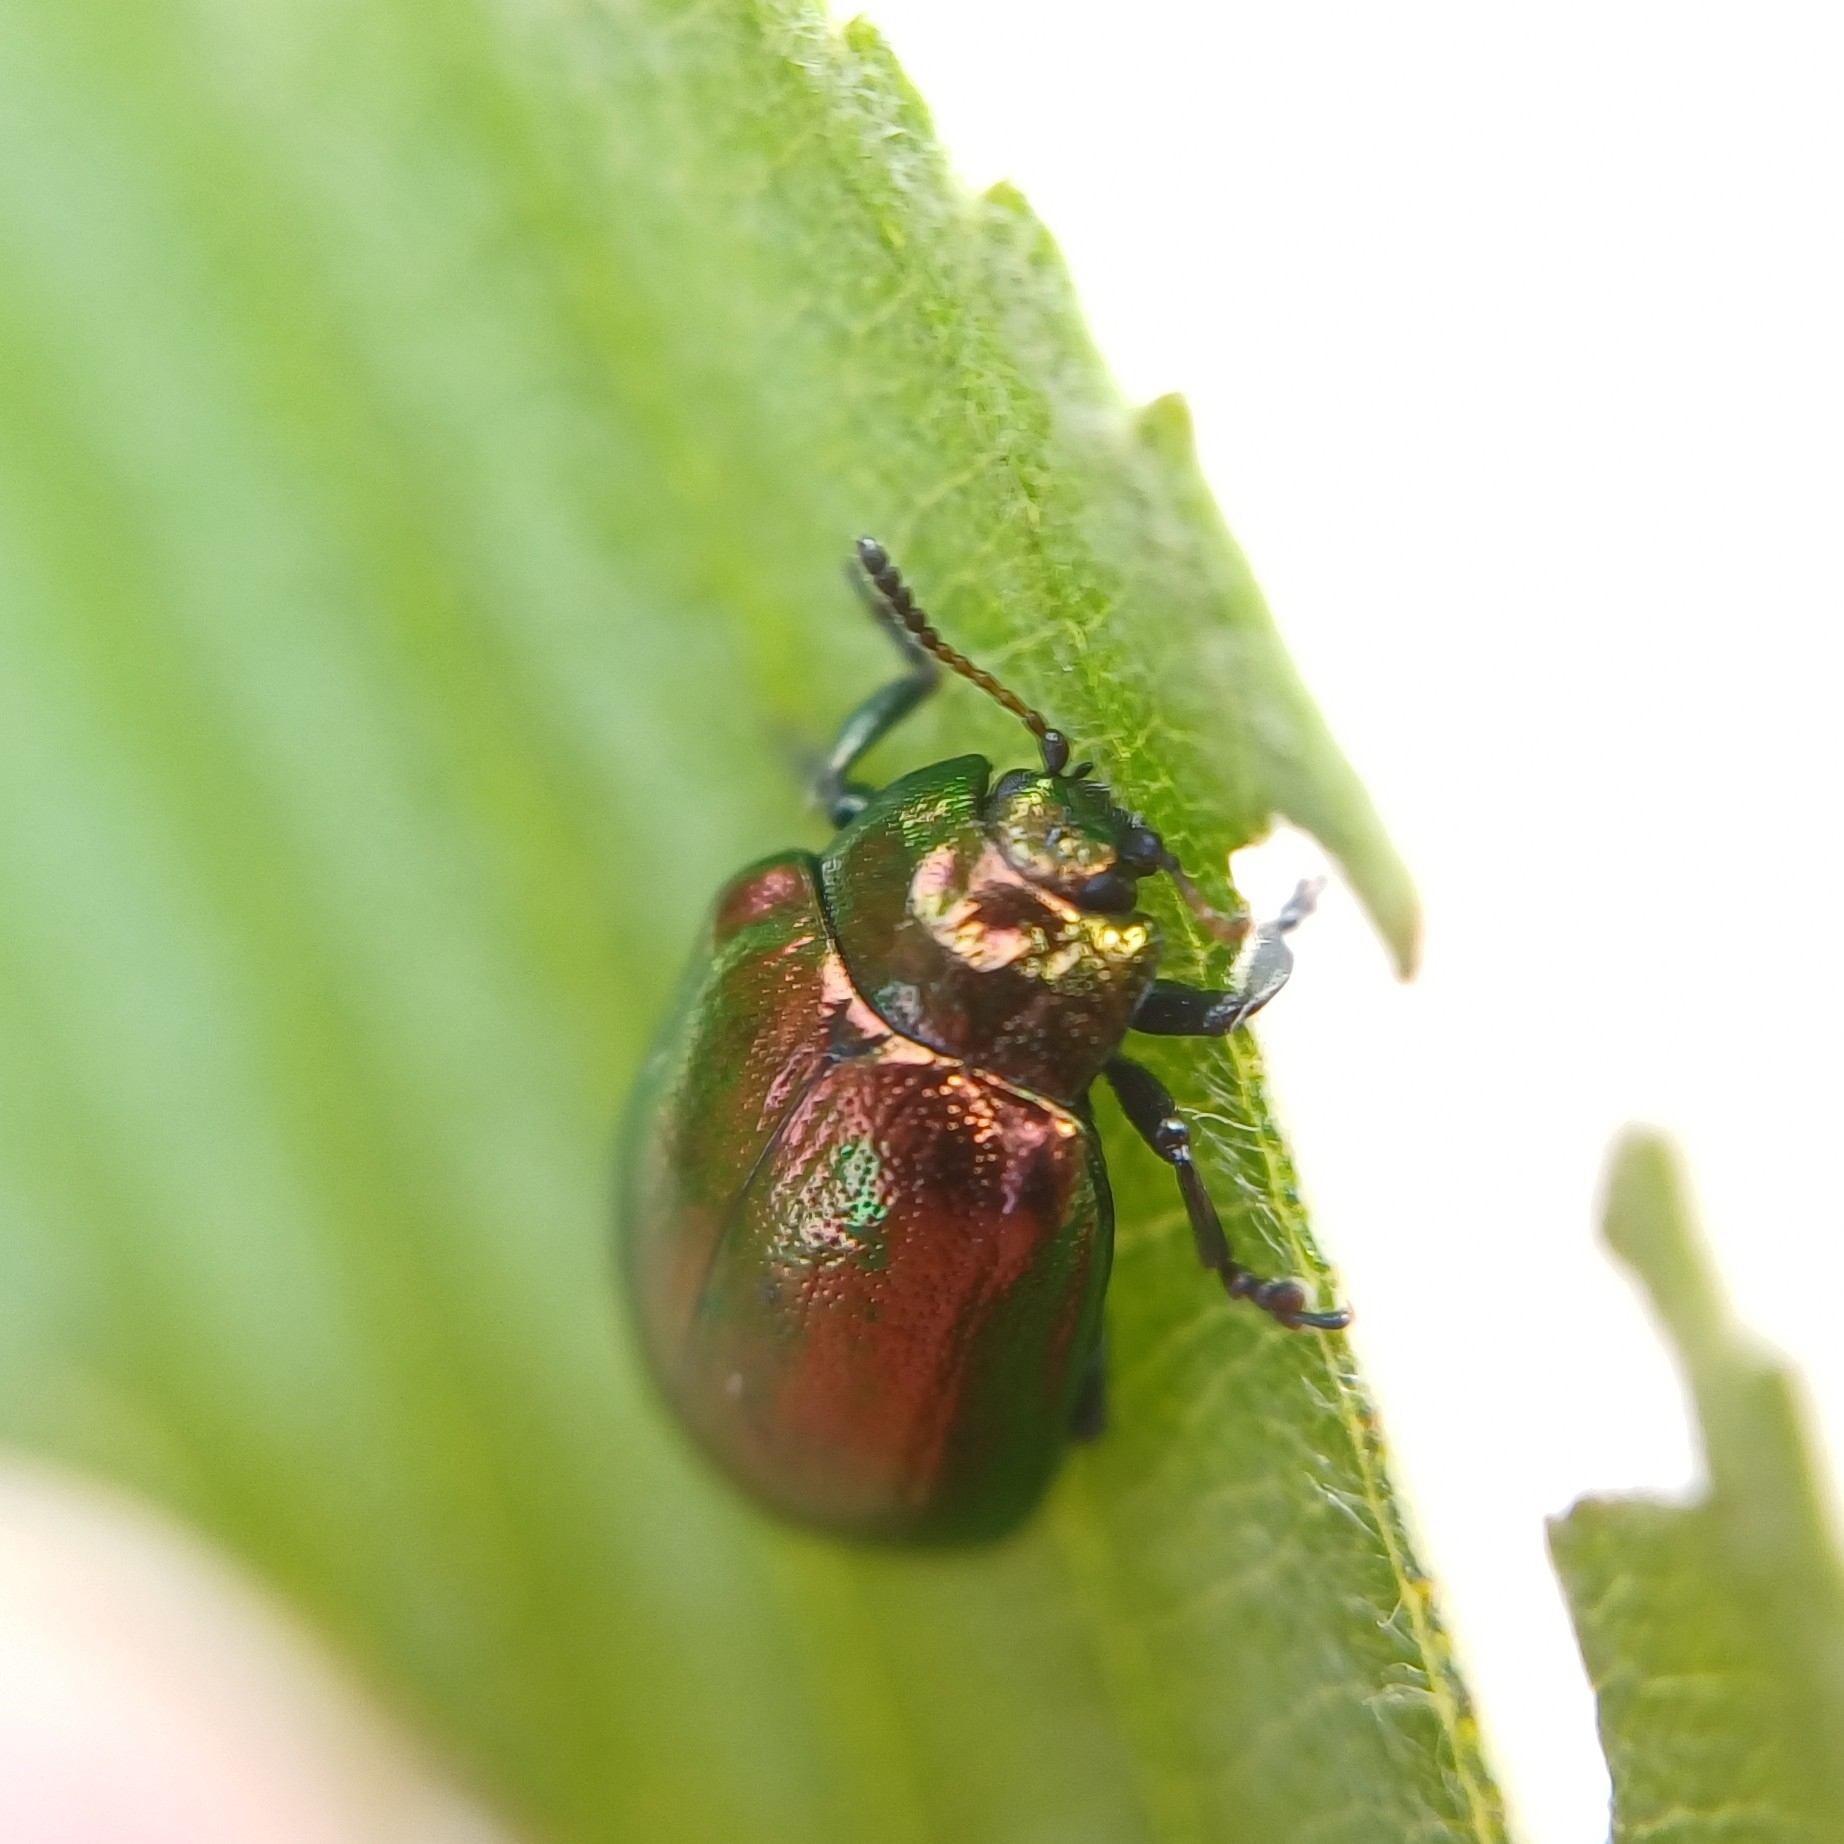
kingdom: Animalia
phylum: Arthropoda
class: Insecta
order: Coleoptera
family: Chrysomelidae
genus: Plagiosterna
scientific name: Plagiosterna aenea
